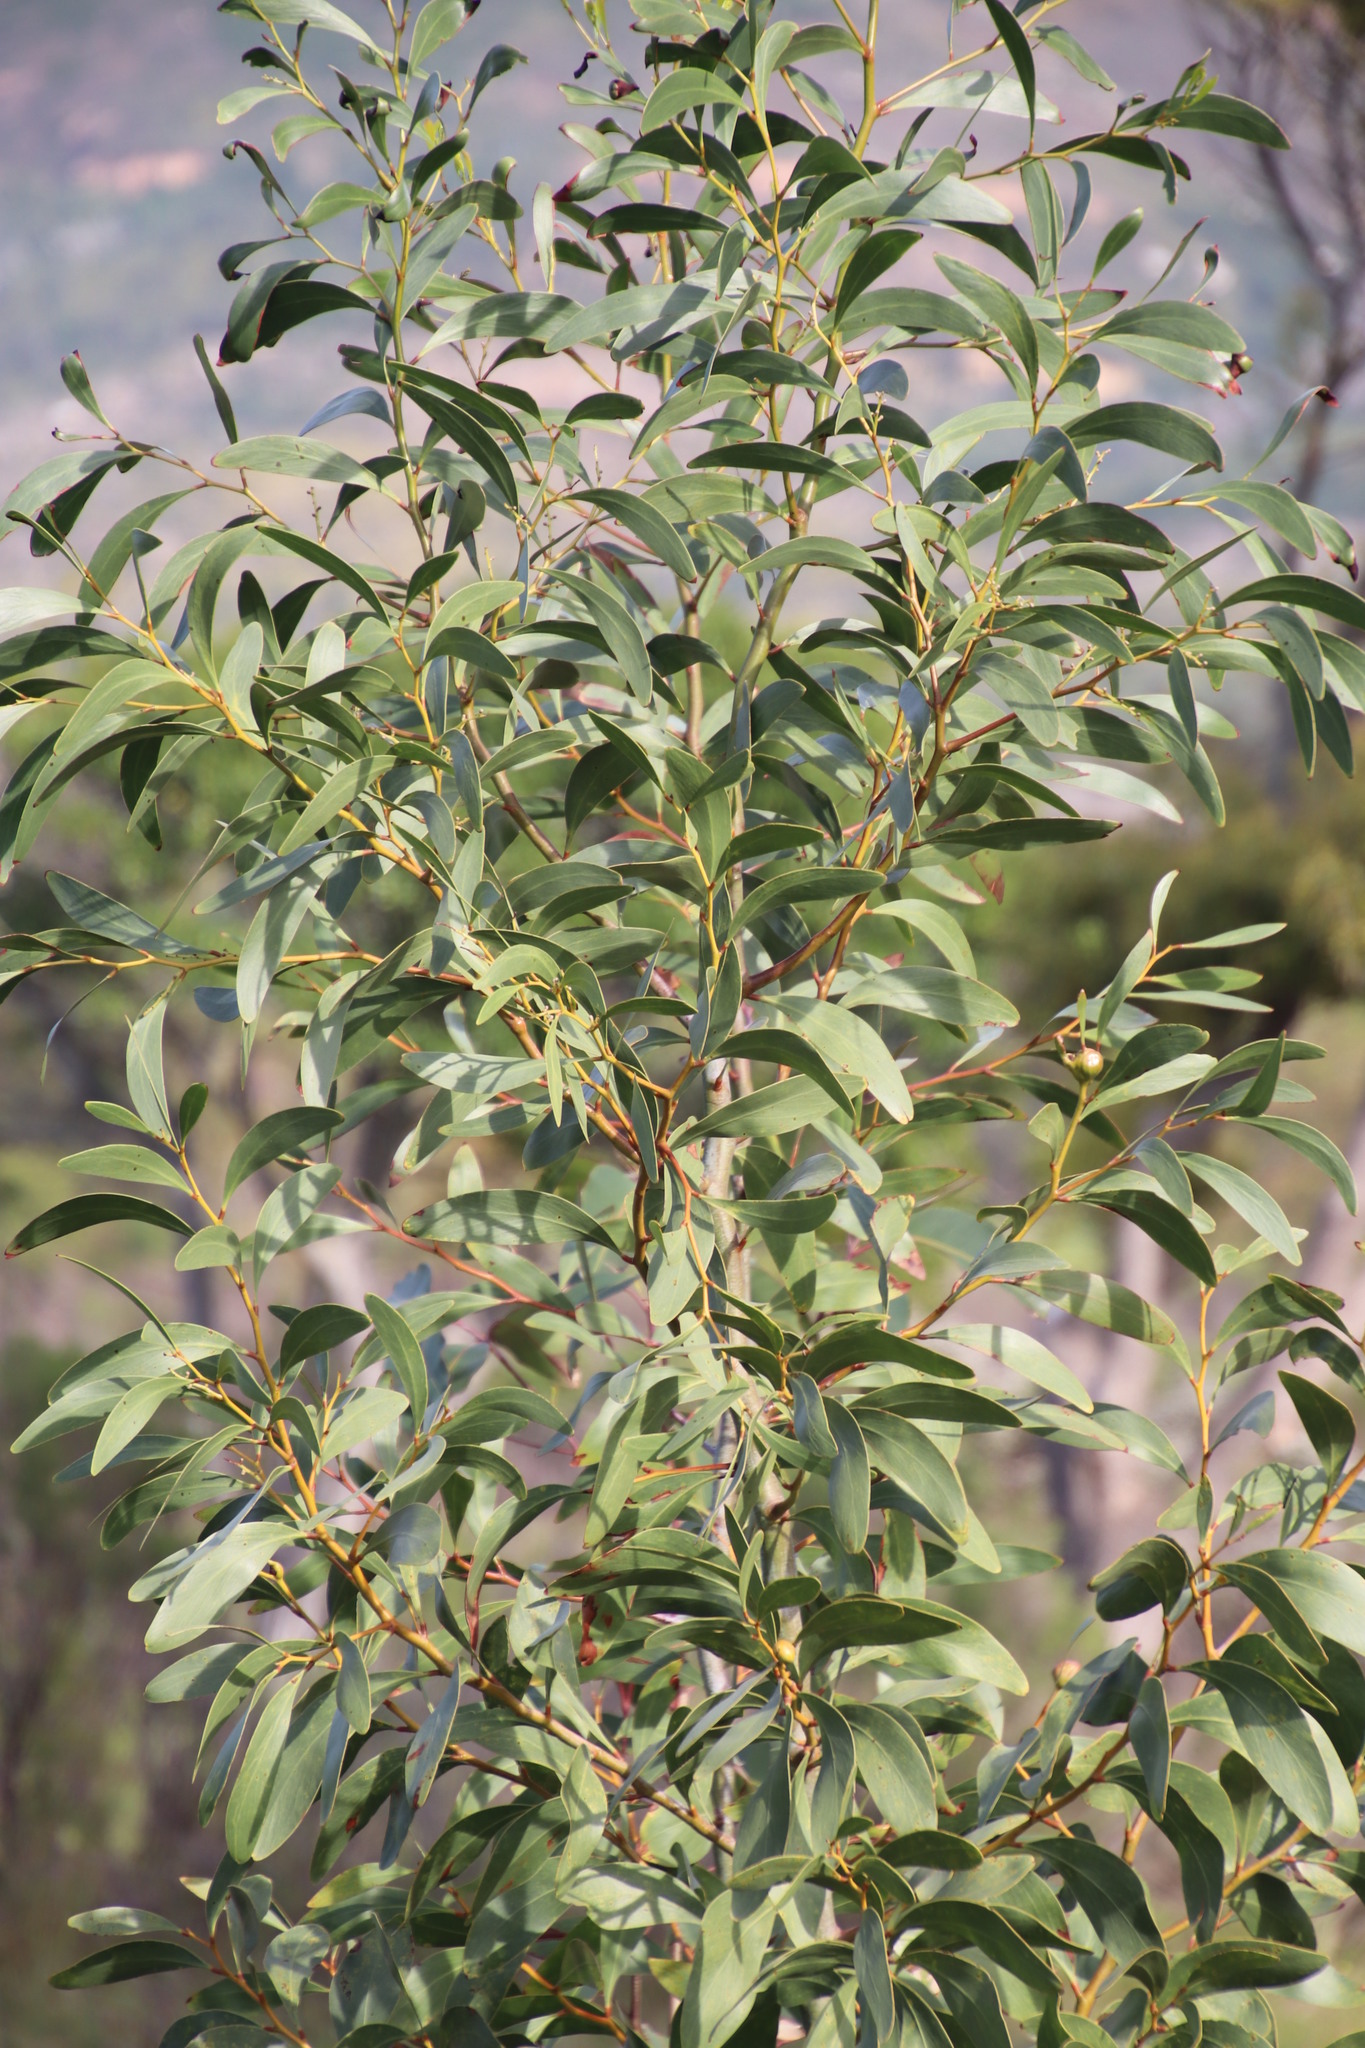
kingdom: Plantae
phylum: Tracheophyta
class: Magnoliopsida
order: Fabales
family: Fabaceae
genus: Acacia
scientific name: Acacia pycnantha
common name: Golden wattle
